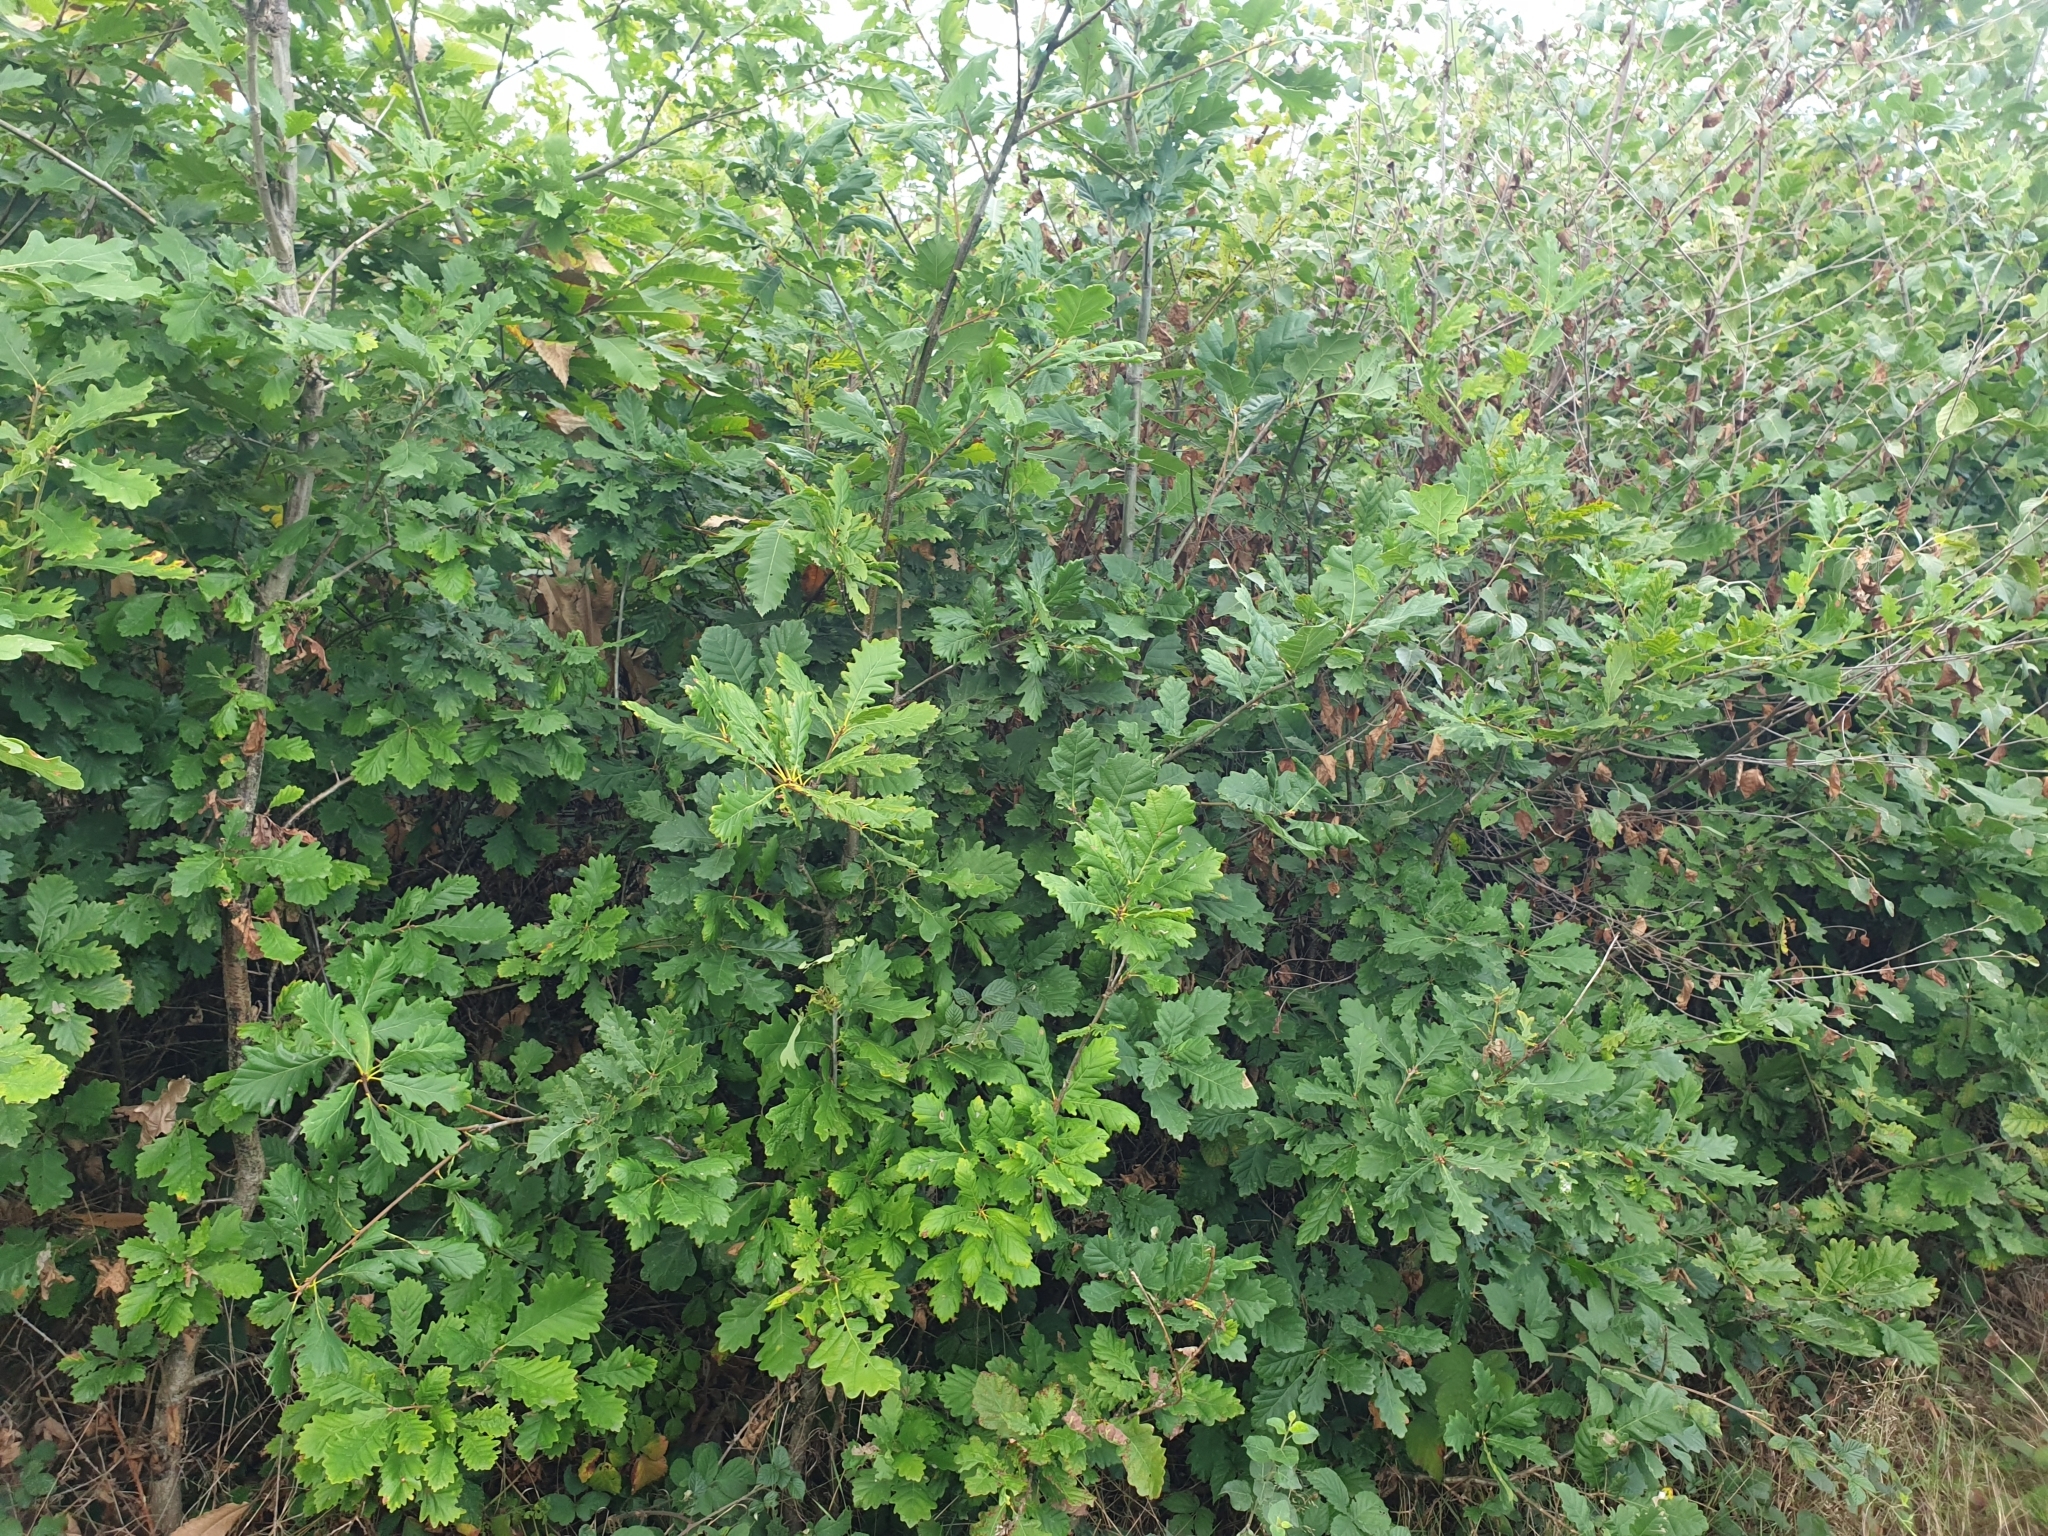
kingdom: Plantae
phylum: Tracheophyta
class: Magnoliopsida
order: Fagales
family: Fagaceae
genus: Quercus
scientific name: Quercus petraea
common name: Sessile oak
